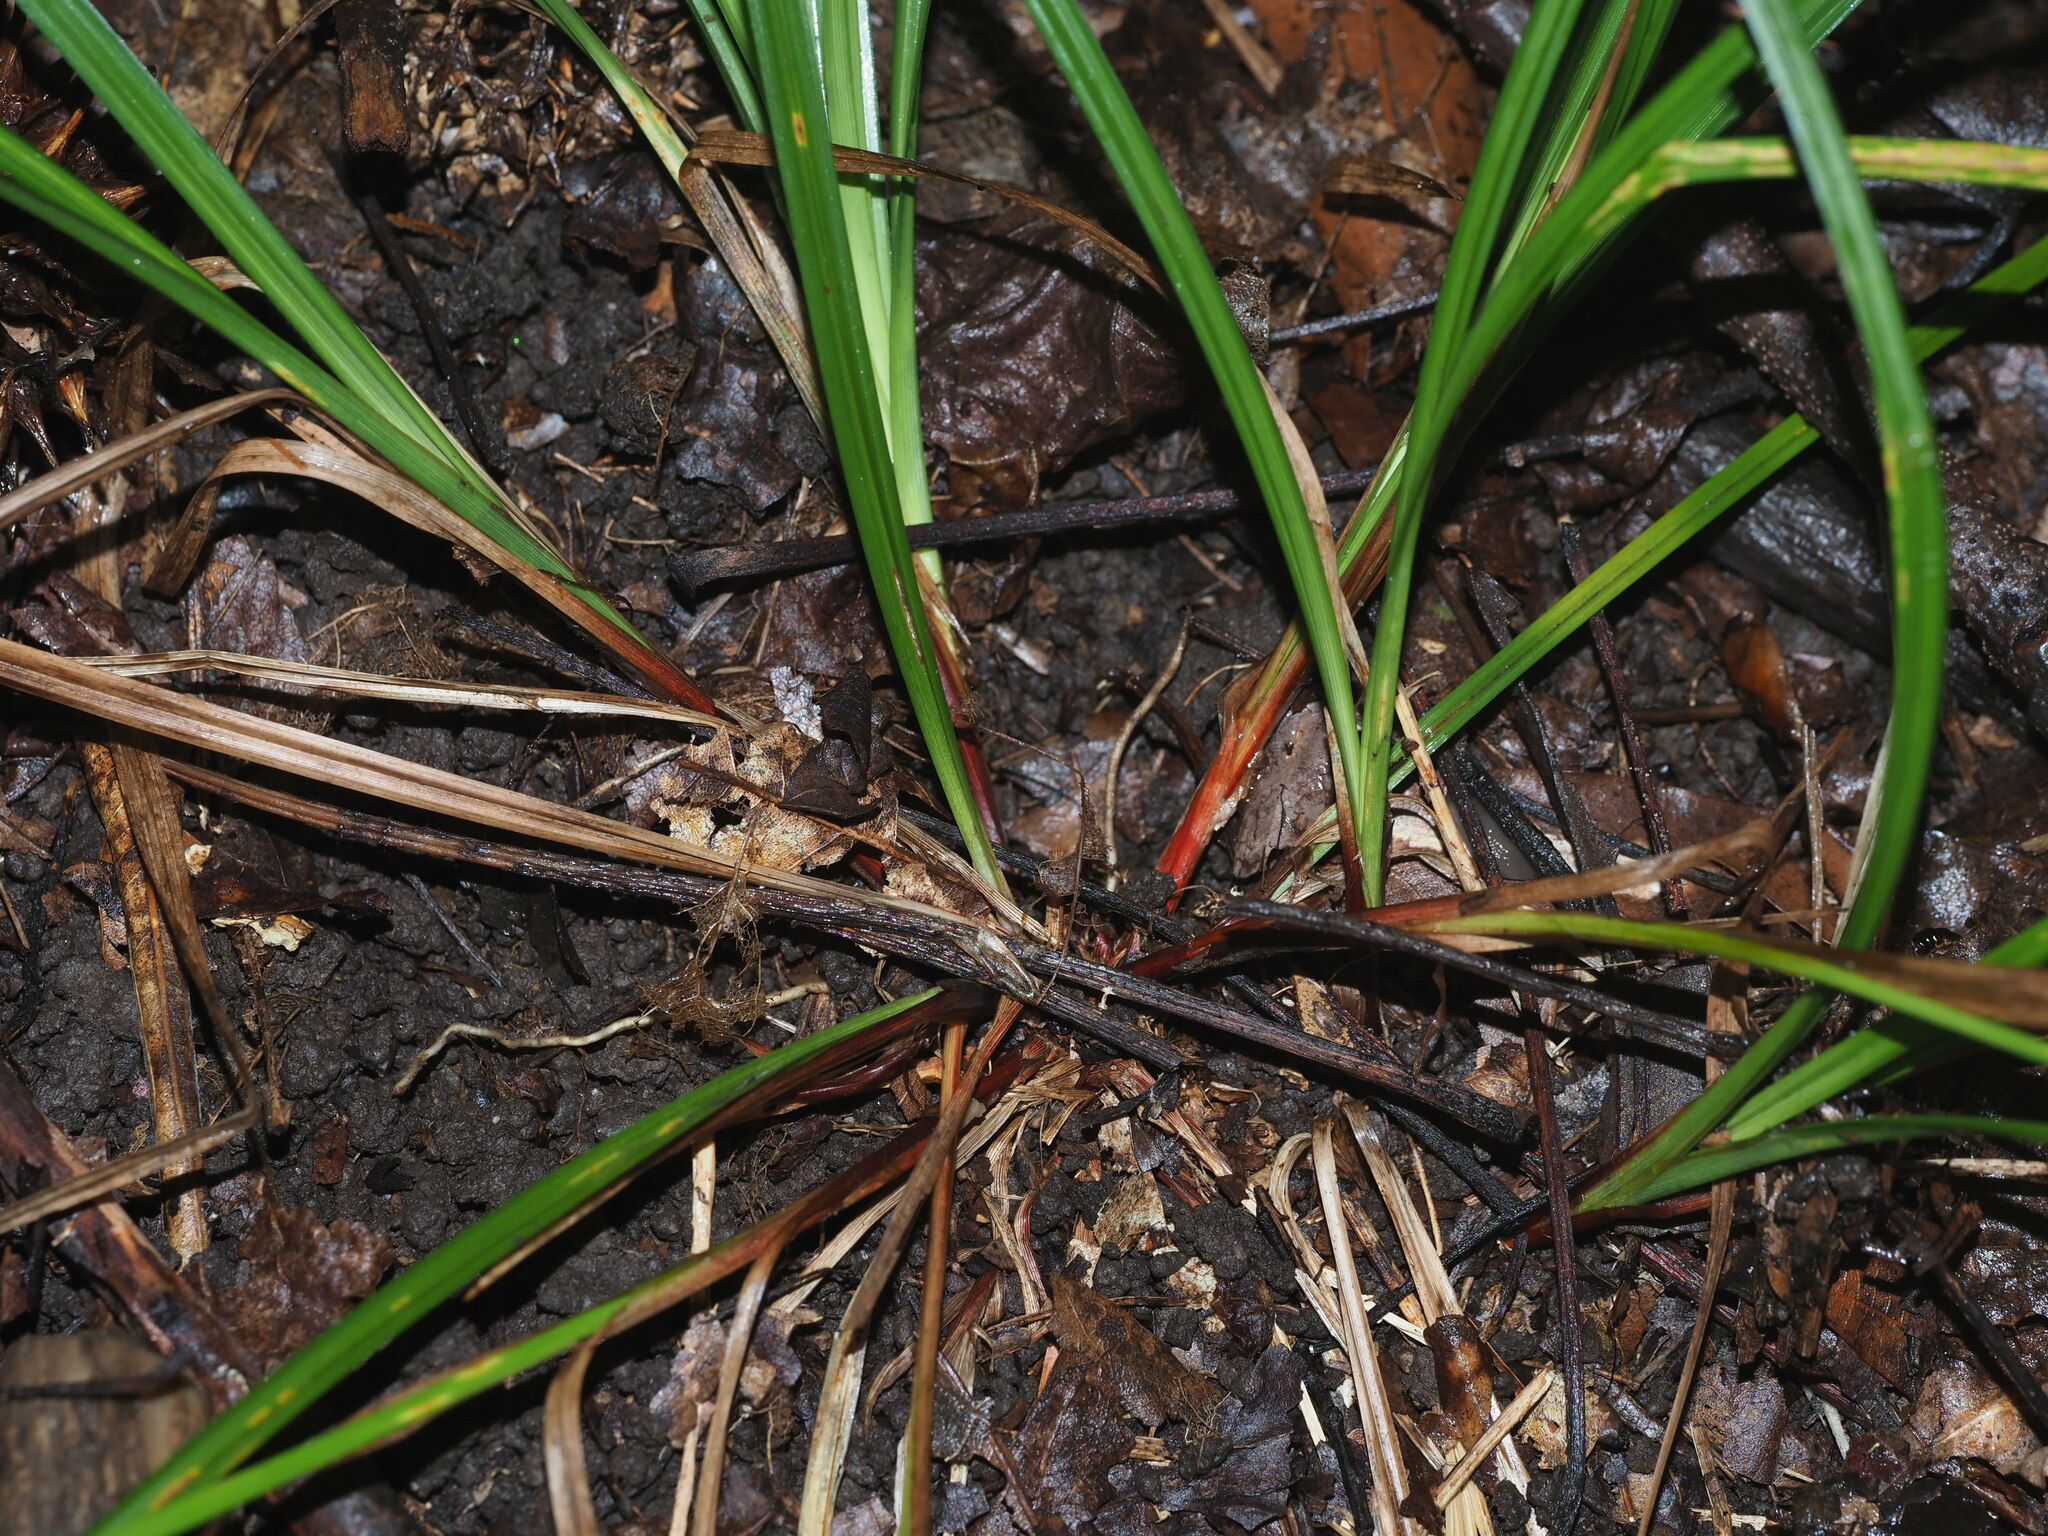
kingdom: Plantae
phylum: Tracheophyta
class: Liliopsida
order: Poales
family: Cyperaceae
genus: Carex
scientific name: Carex debilis
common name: White-edge sedge
